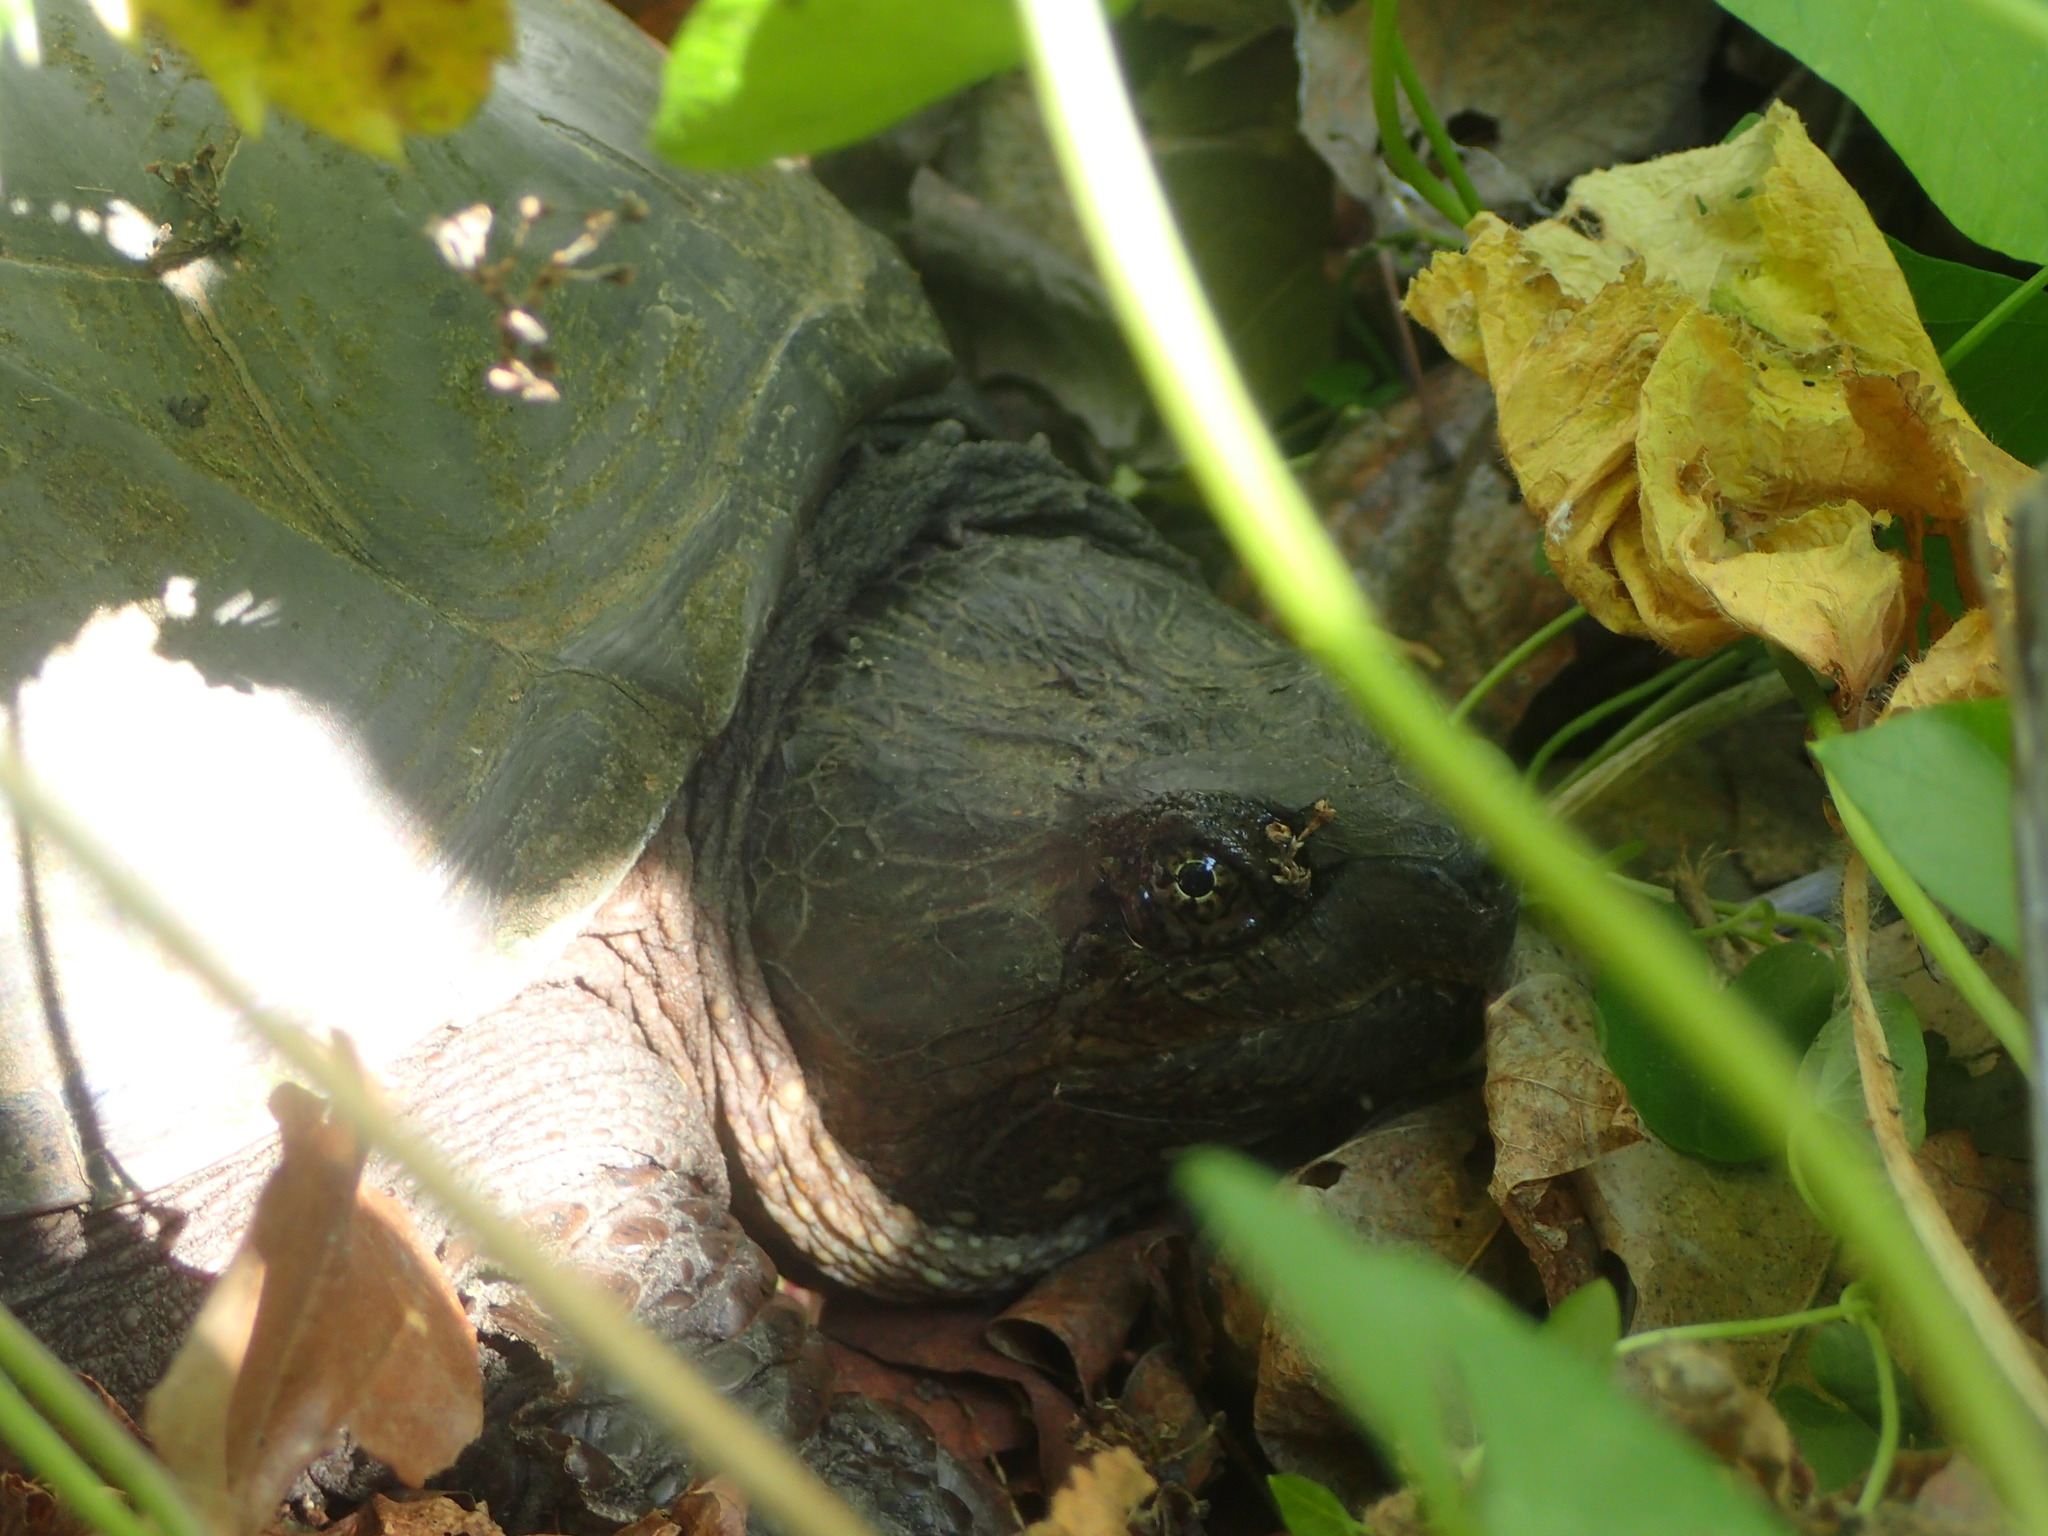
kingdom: Animalia
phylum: Chordata
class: Testudines
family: Chelydridae
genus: Chelydra
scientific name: Chelydra serpentina
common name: Common snapping turtle
